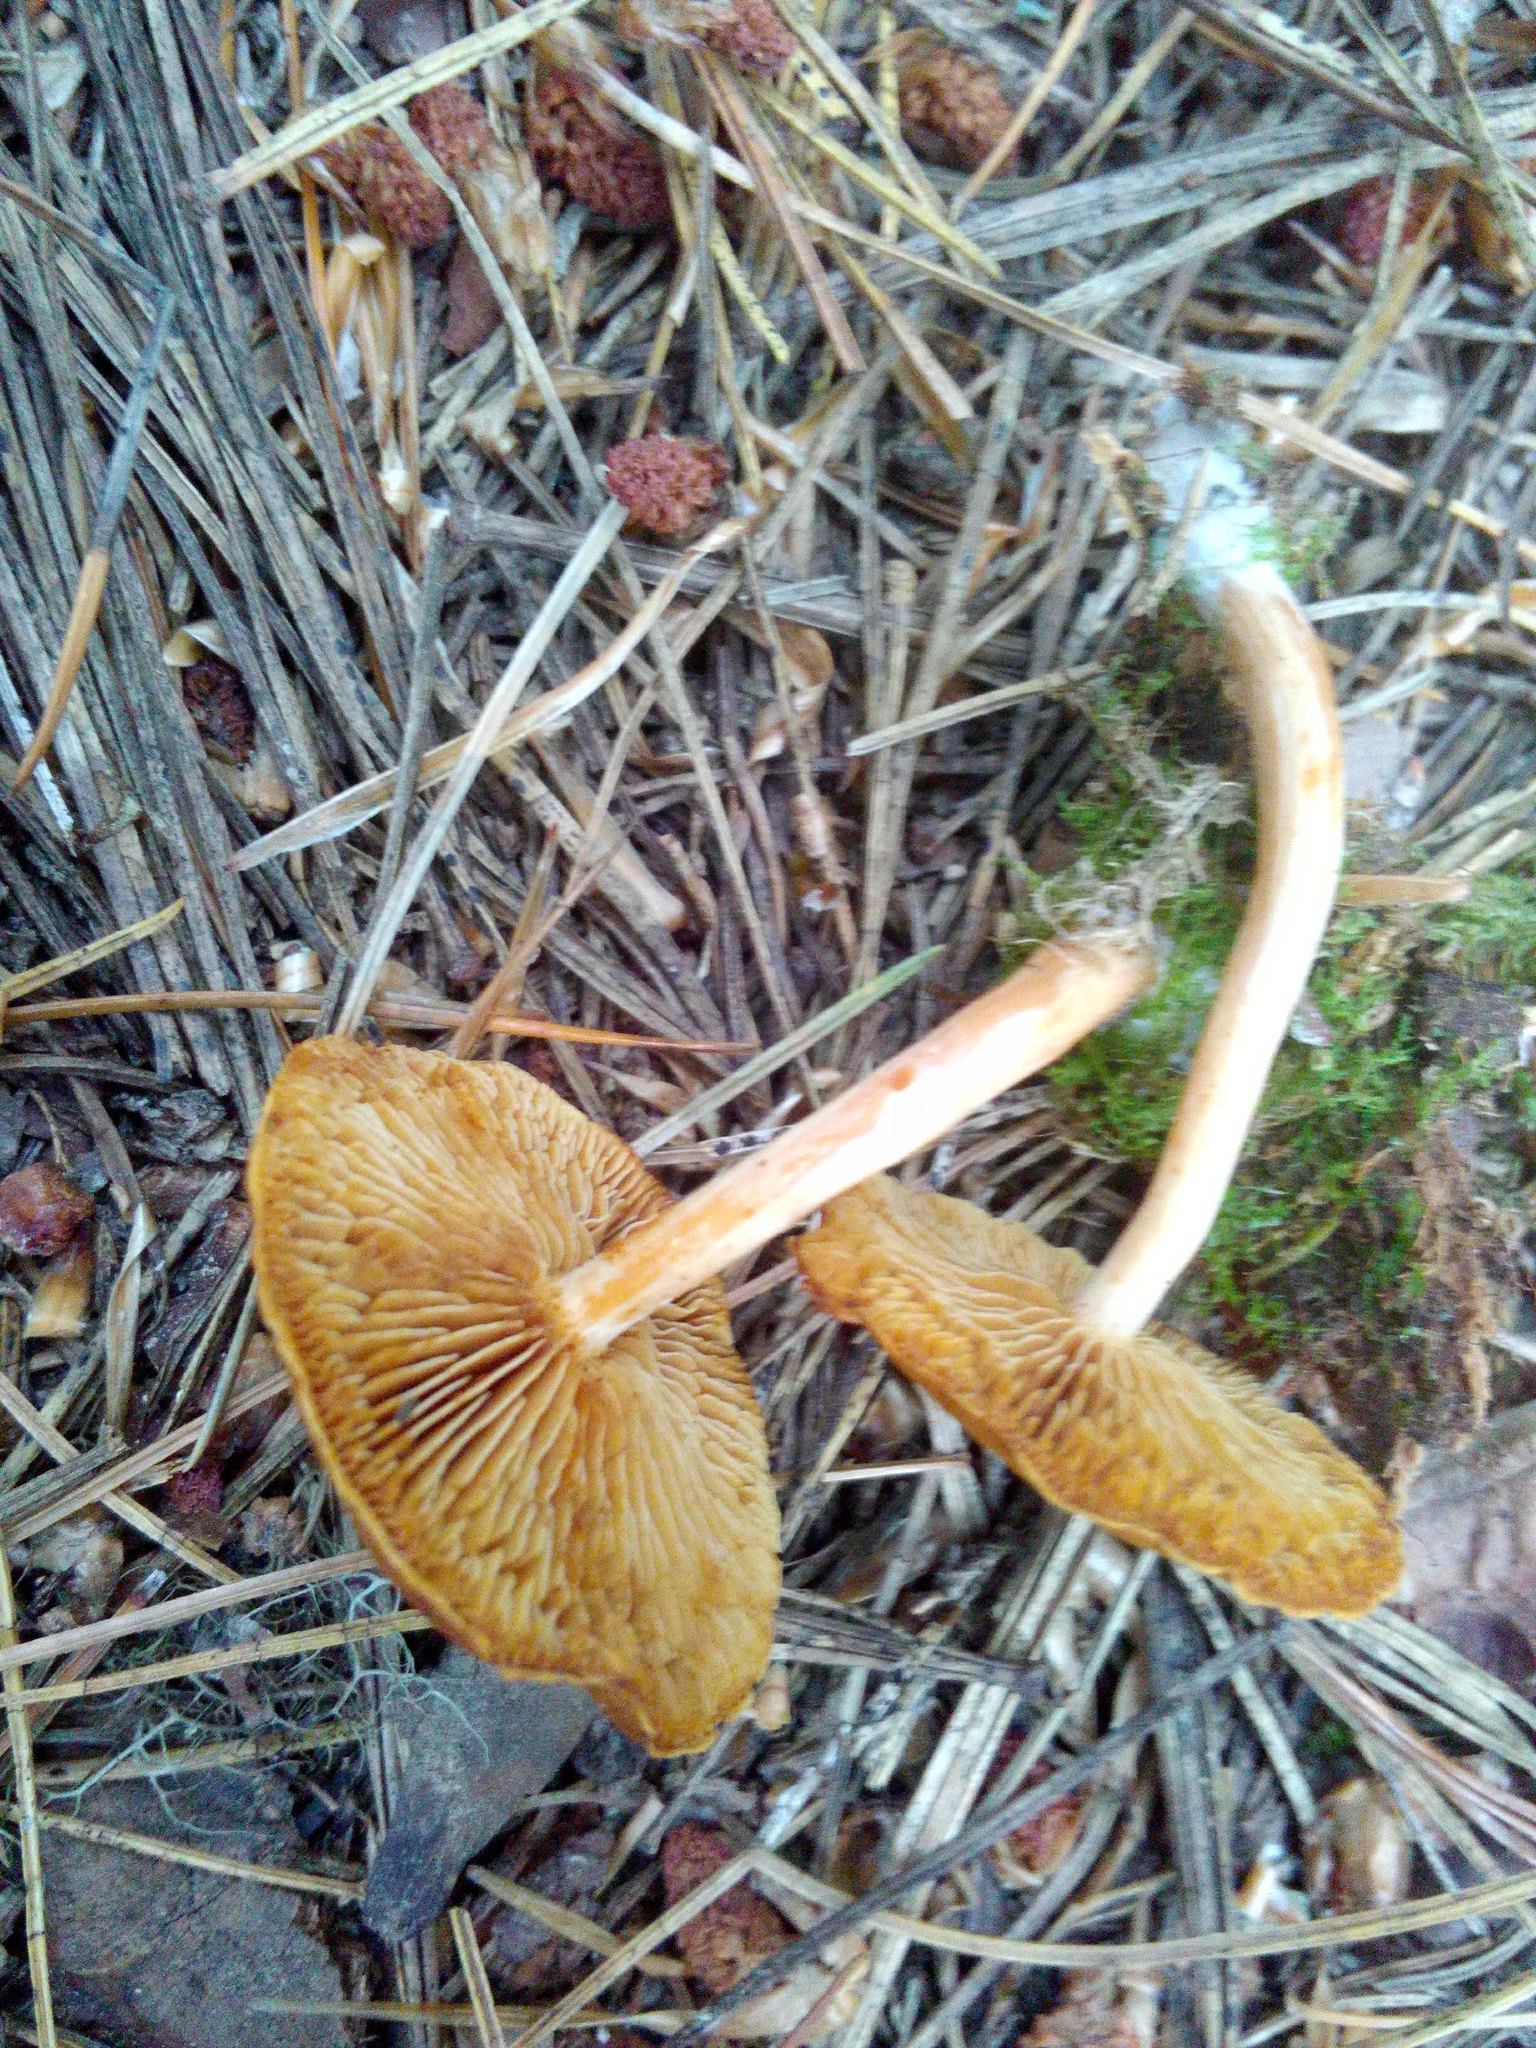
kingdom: Fungi
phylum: Basidiomycota
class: Agaricomycetes
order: Agaricales
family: Hymenogastraceae
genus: Gymnopilus
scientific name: Gymnopilus penetrans
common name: Common rustgill
